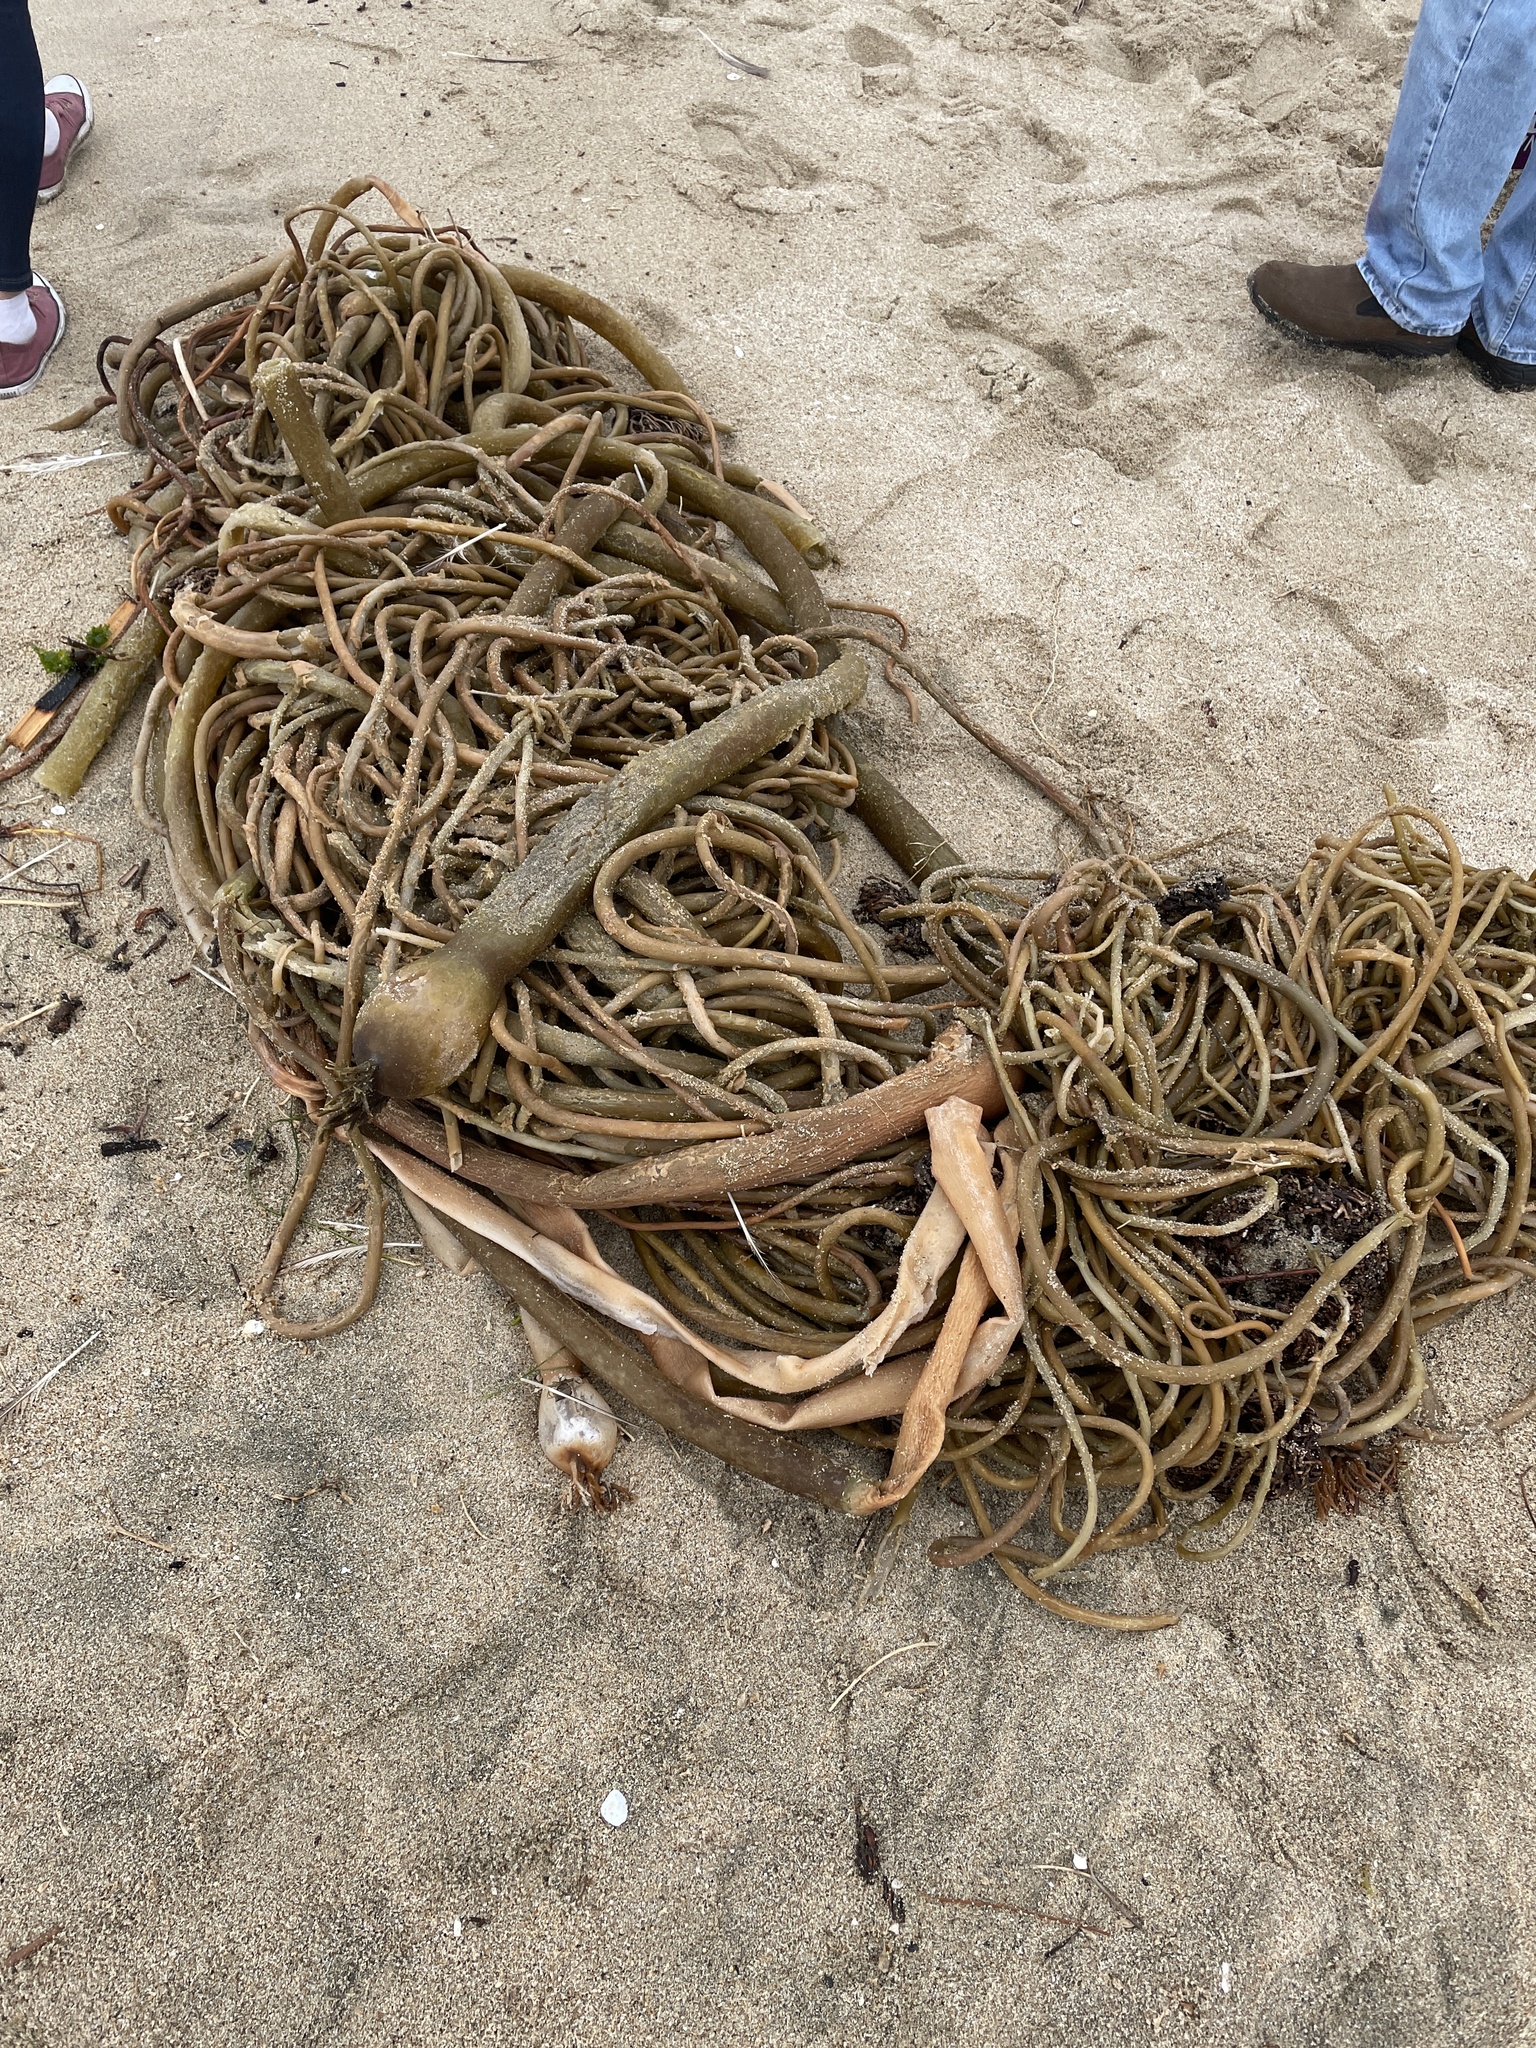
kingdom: Chromista
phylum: Ochrophyta
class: Phaeophyceae
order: Laminariales
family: Laminariaceae
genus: Nereocystis
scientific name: Nereocystis luetkeana
